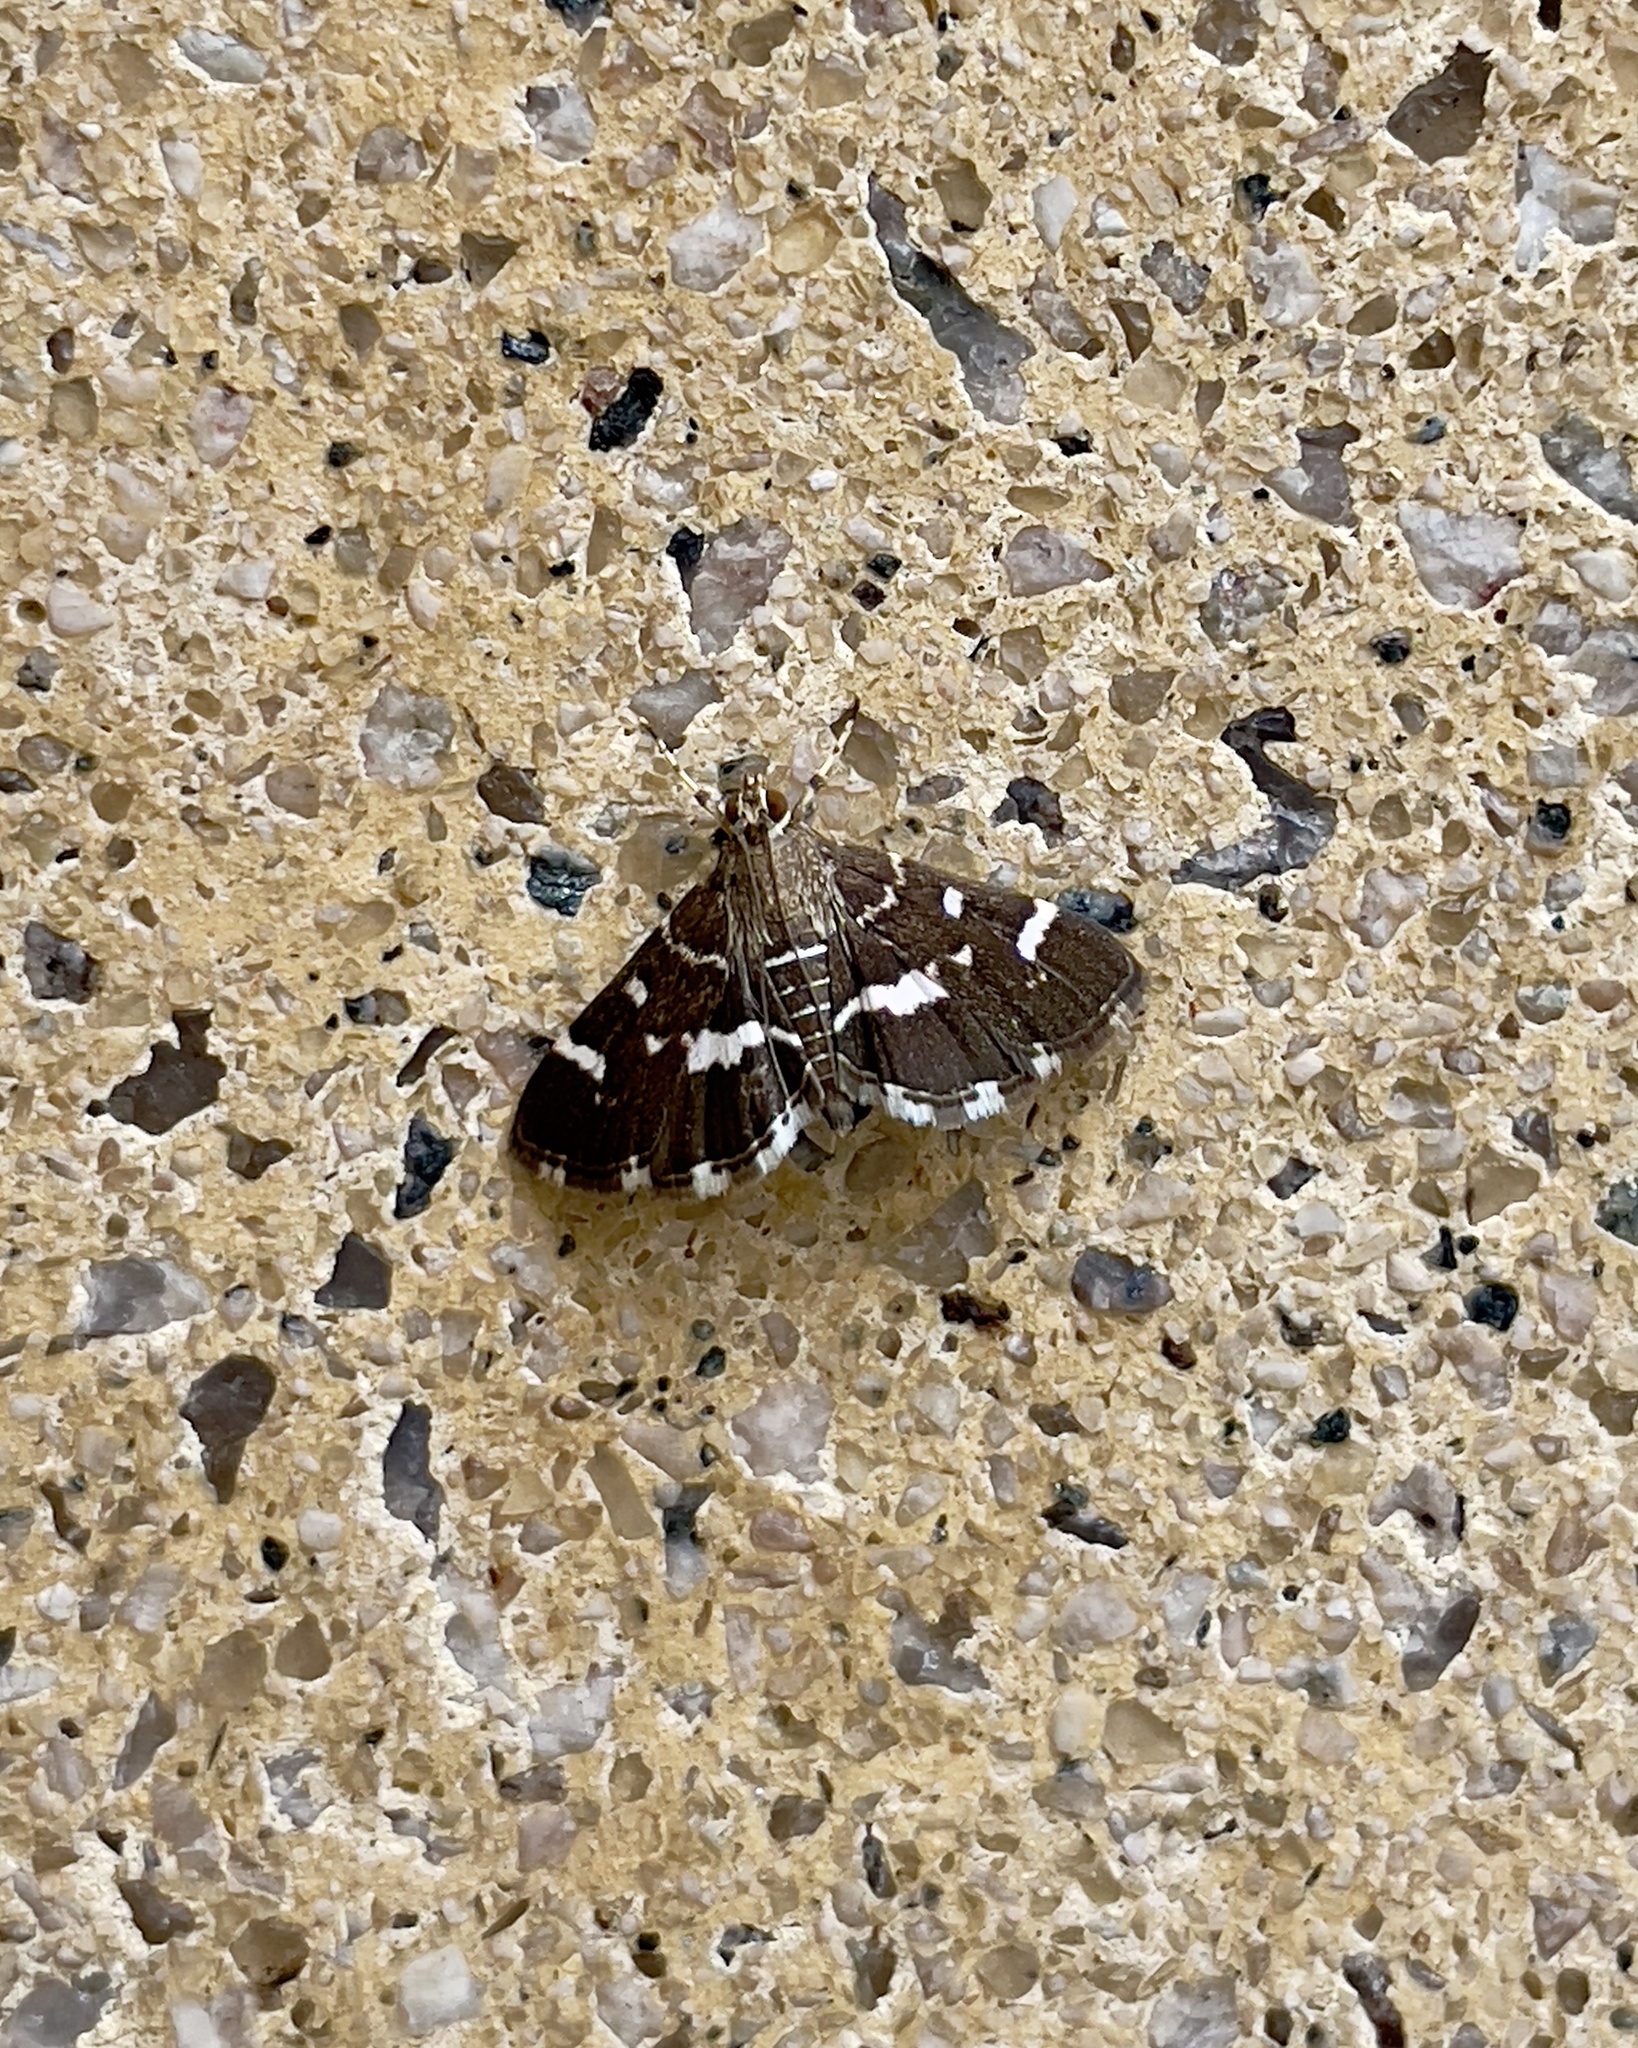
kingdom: Animalia
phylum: Arthropoda
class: Insecta
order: Lepidoptera
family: Crambidae
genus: Hymenia
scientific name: Hymenia perspectalis
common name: Spotted beet webworm
